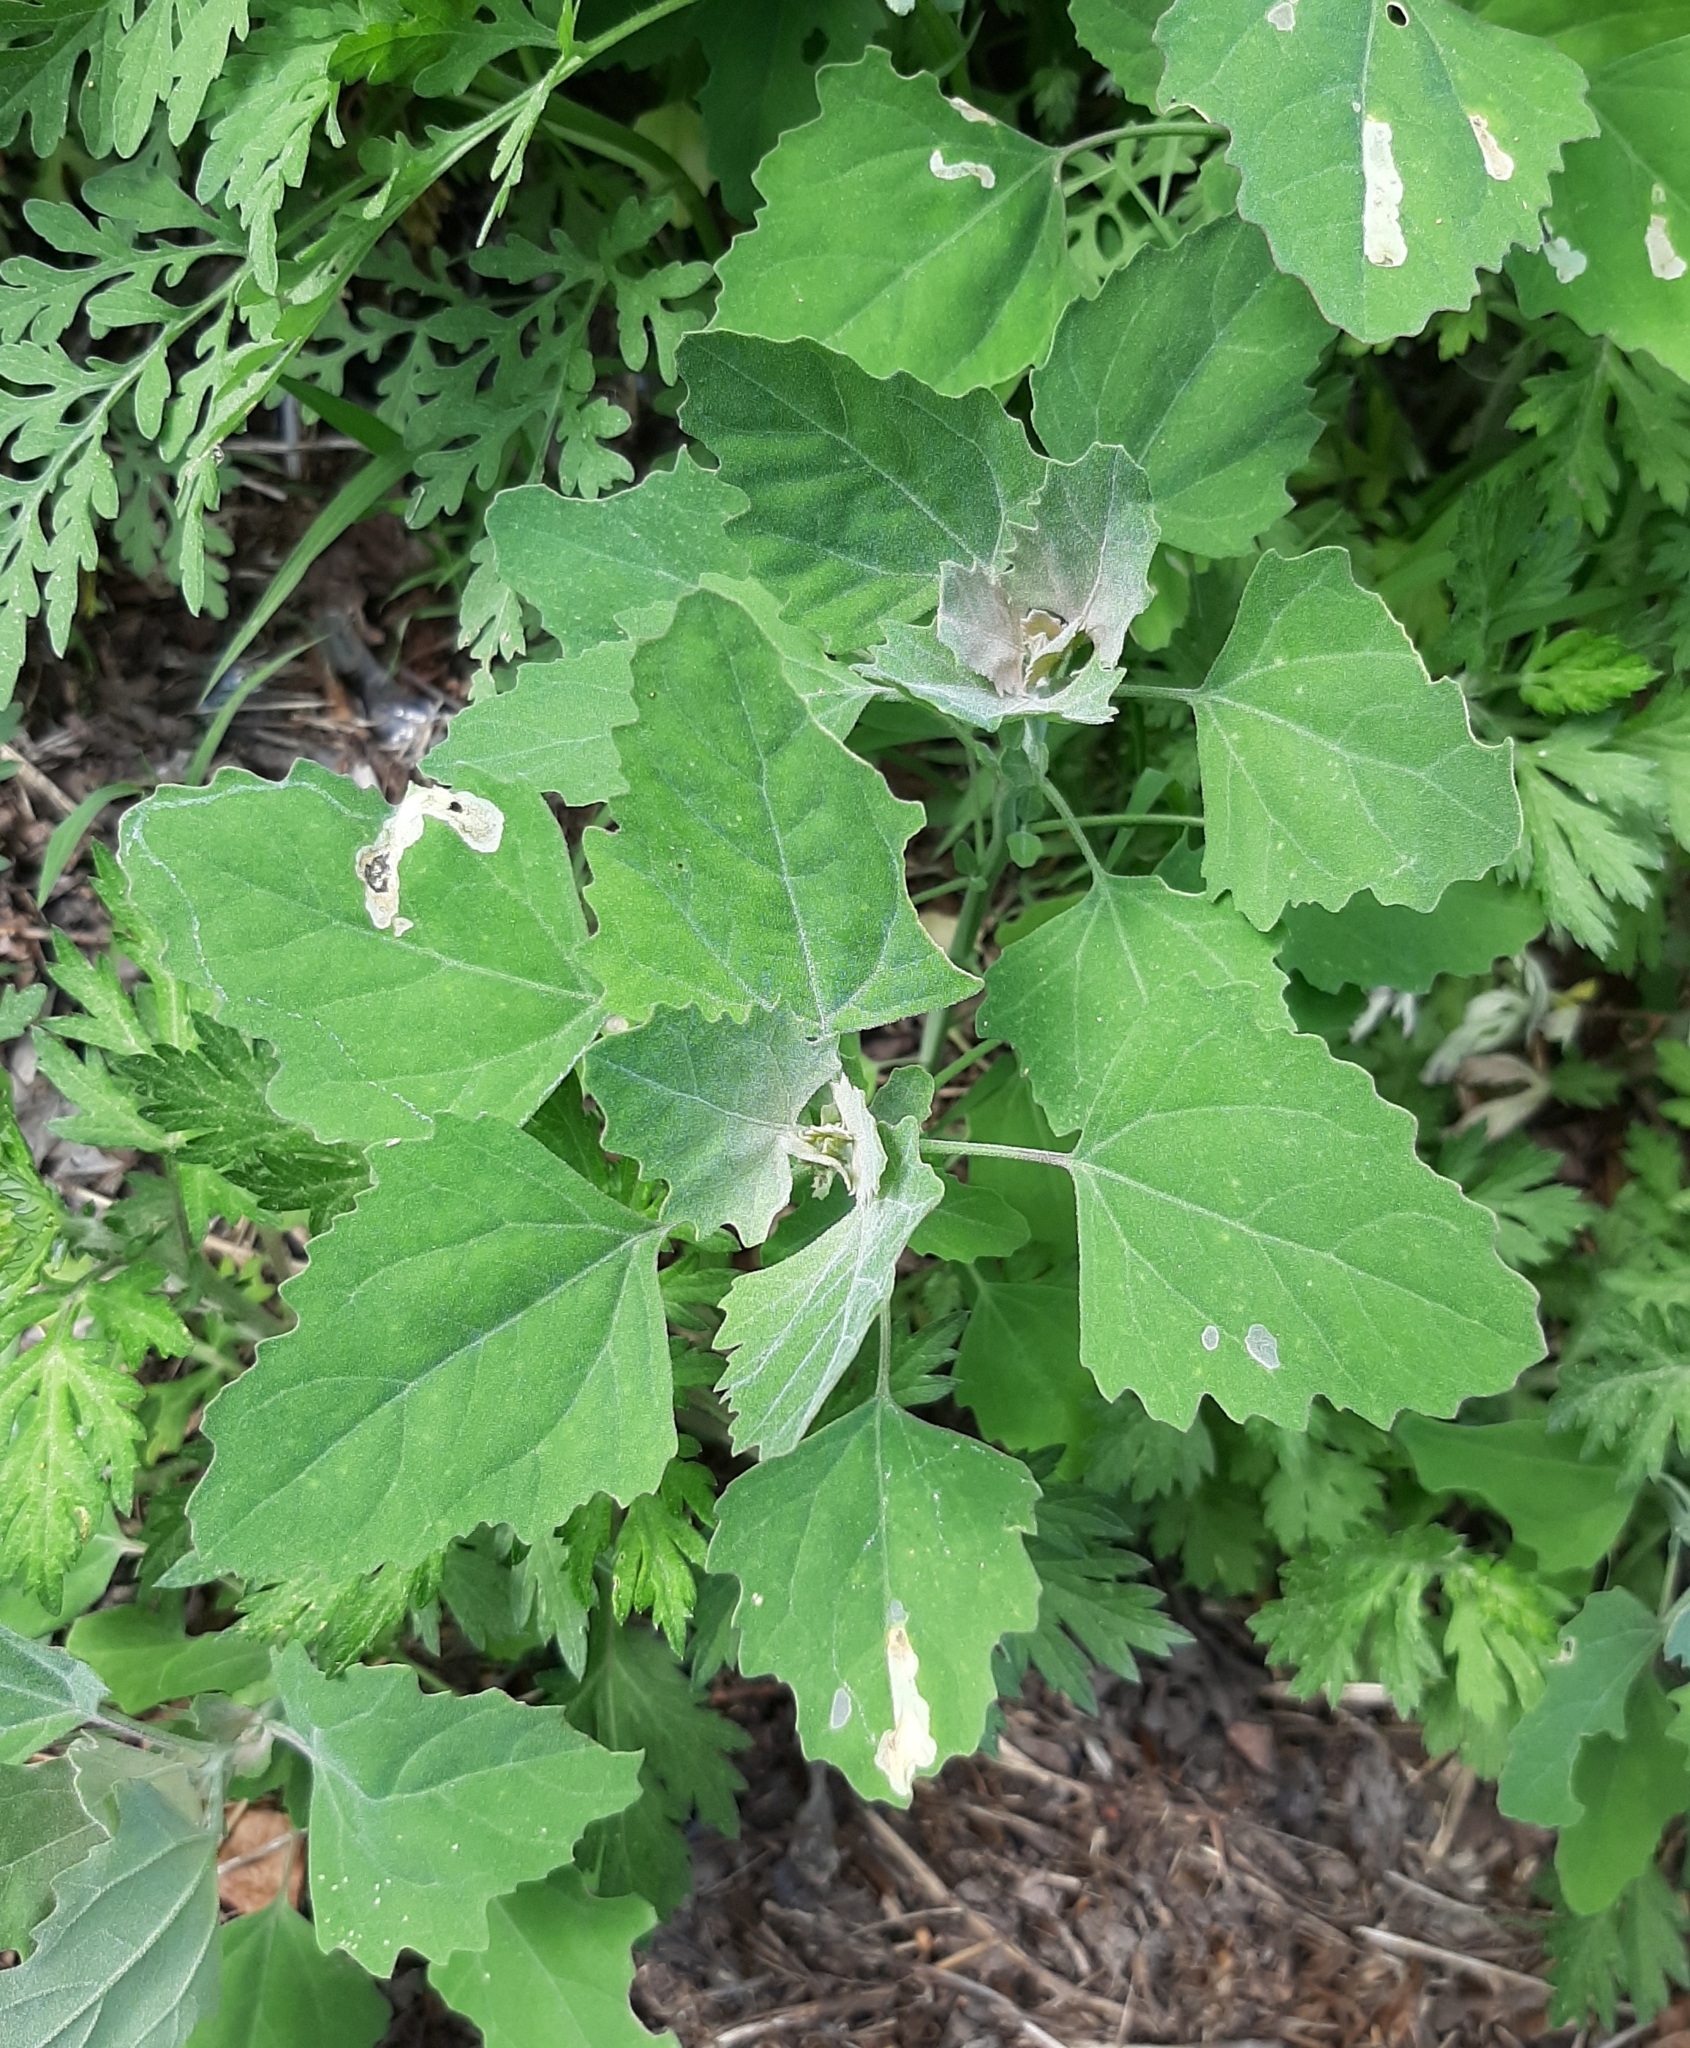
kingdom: Plantae
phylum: Tracheophyta
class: Magnoliopsida
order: Caryophyllales
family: Amaranthaceae
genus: Chenopodium
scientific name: Chenopodium album
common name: Fat-hen
